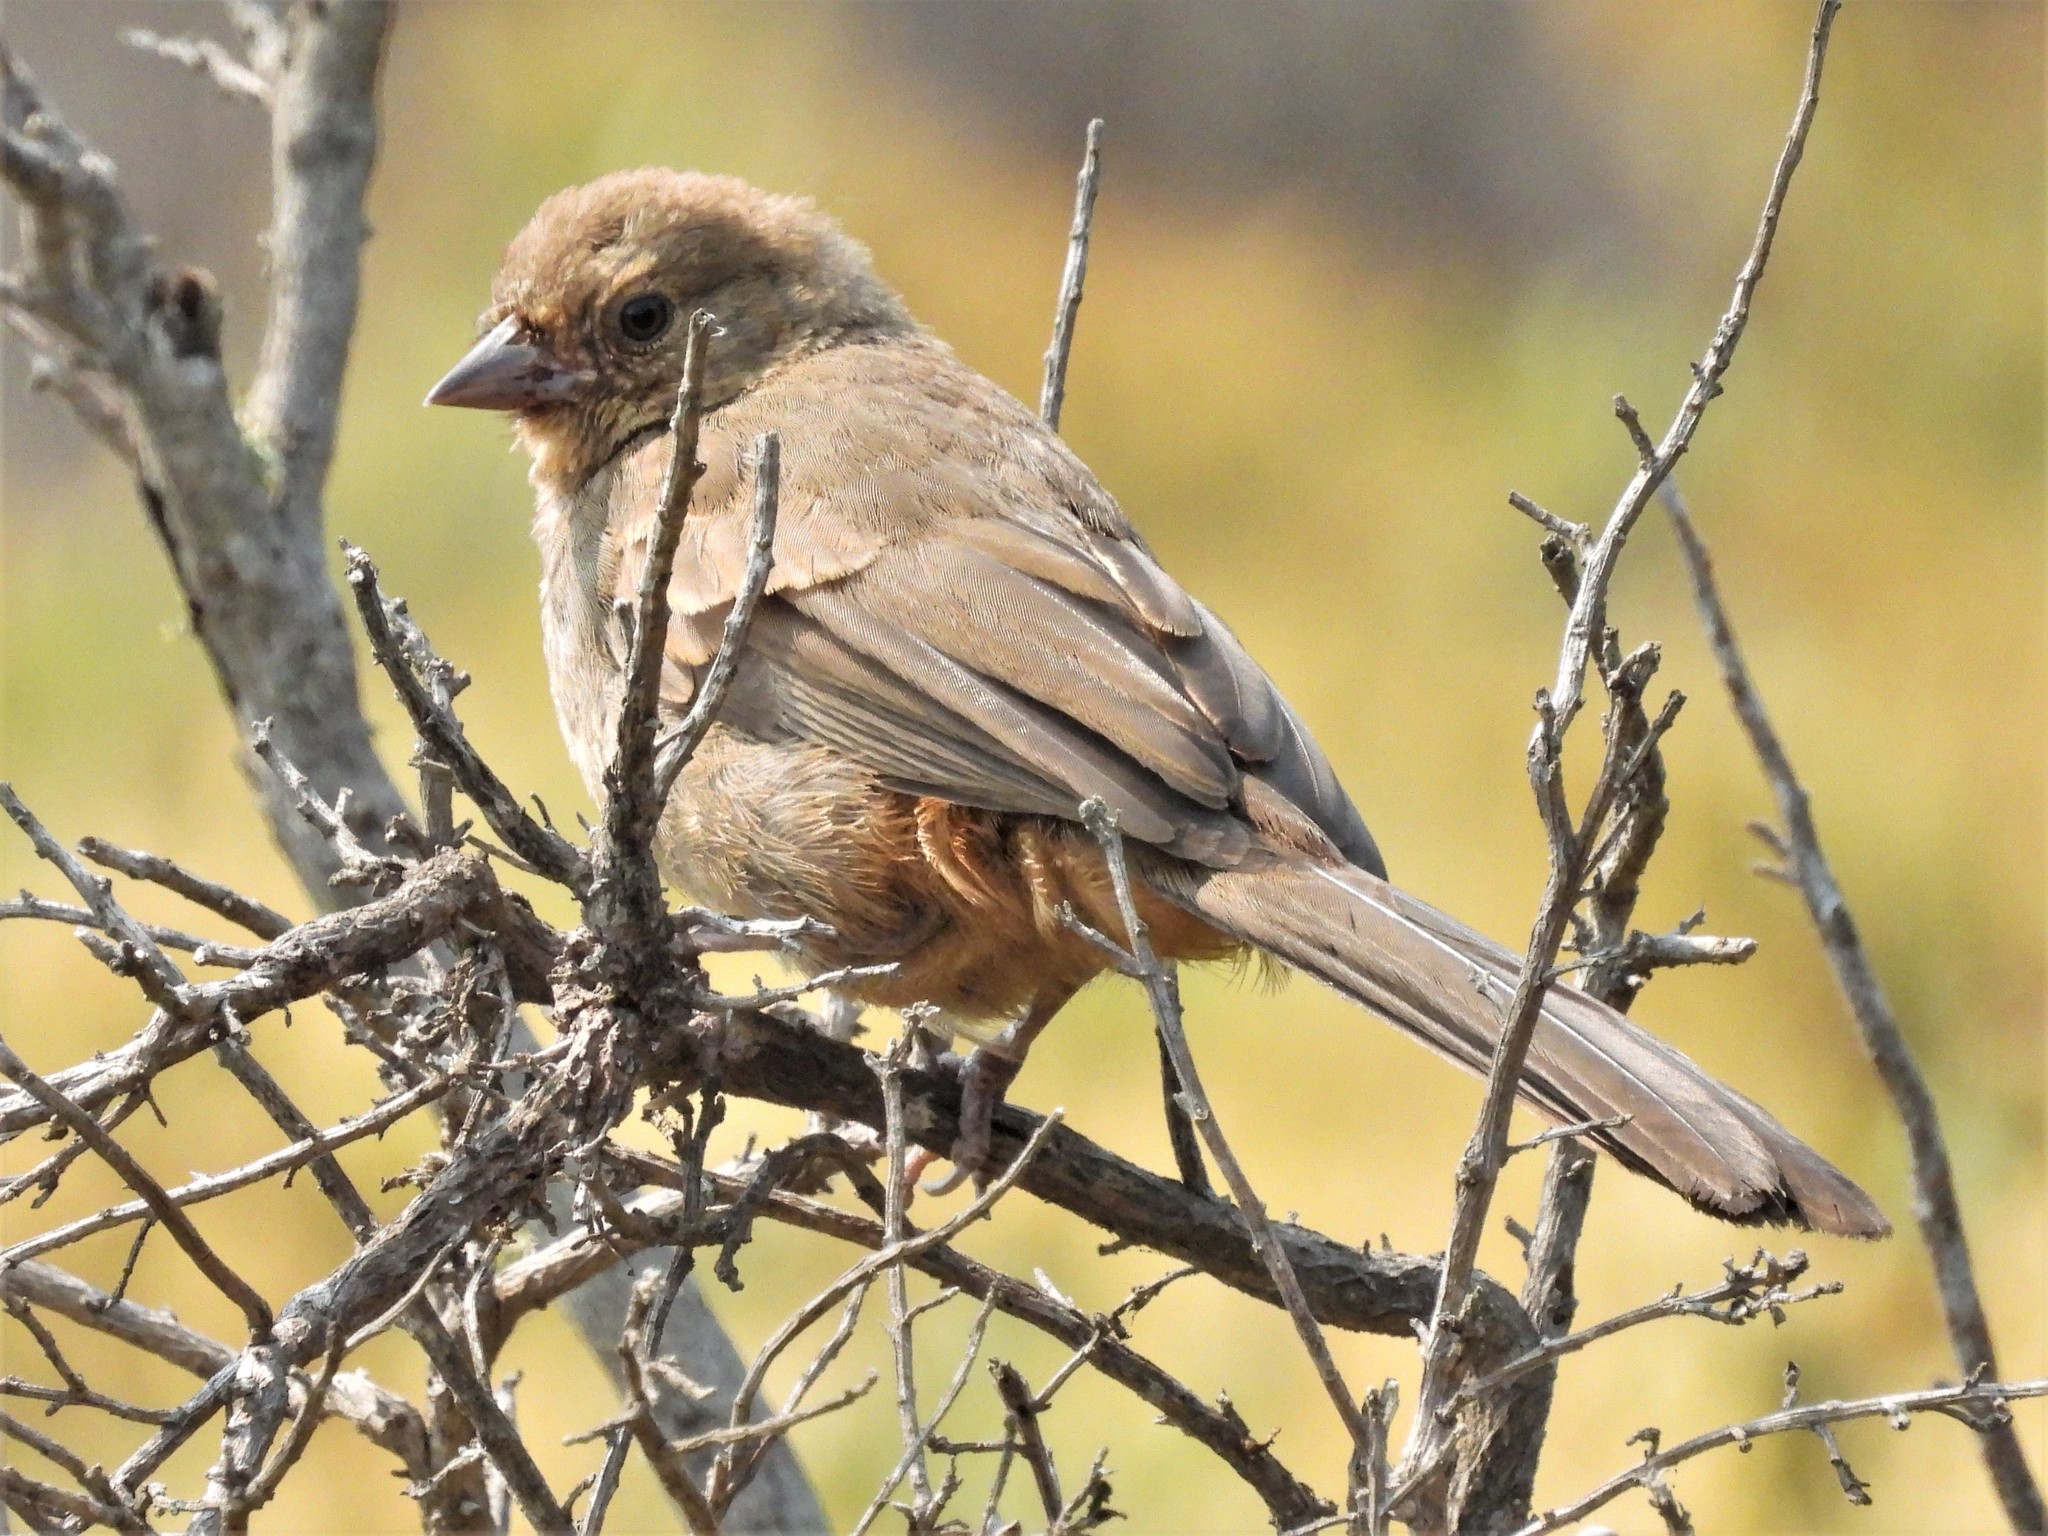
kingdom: Animalia
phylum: Chordata
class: Aves
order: Passeriformes
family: Passerellidae
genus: Melozone
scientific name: Melozone crissalis
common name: California towhee
